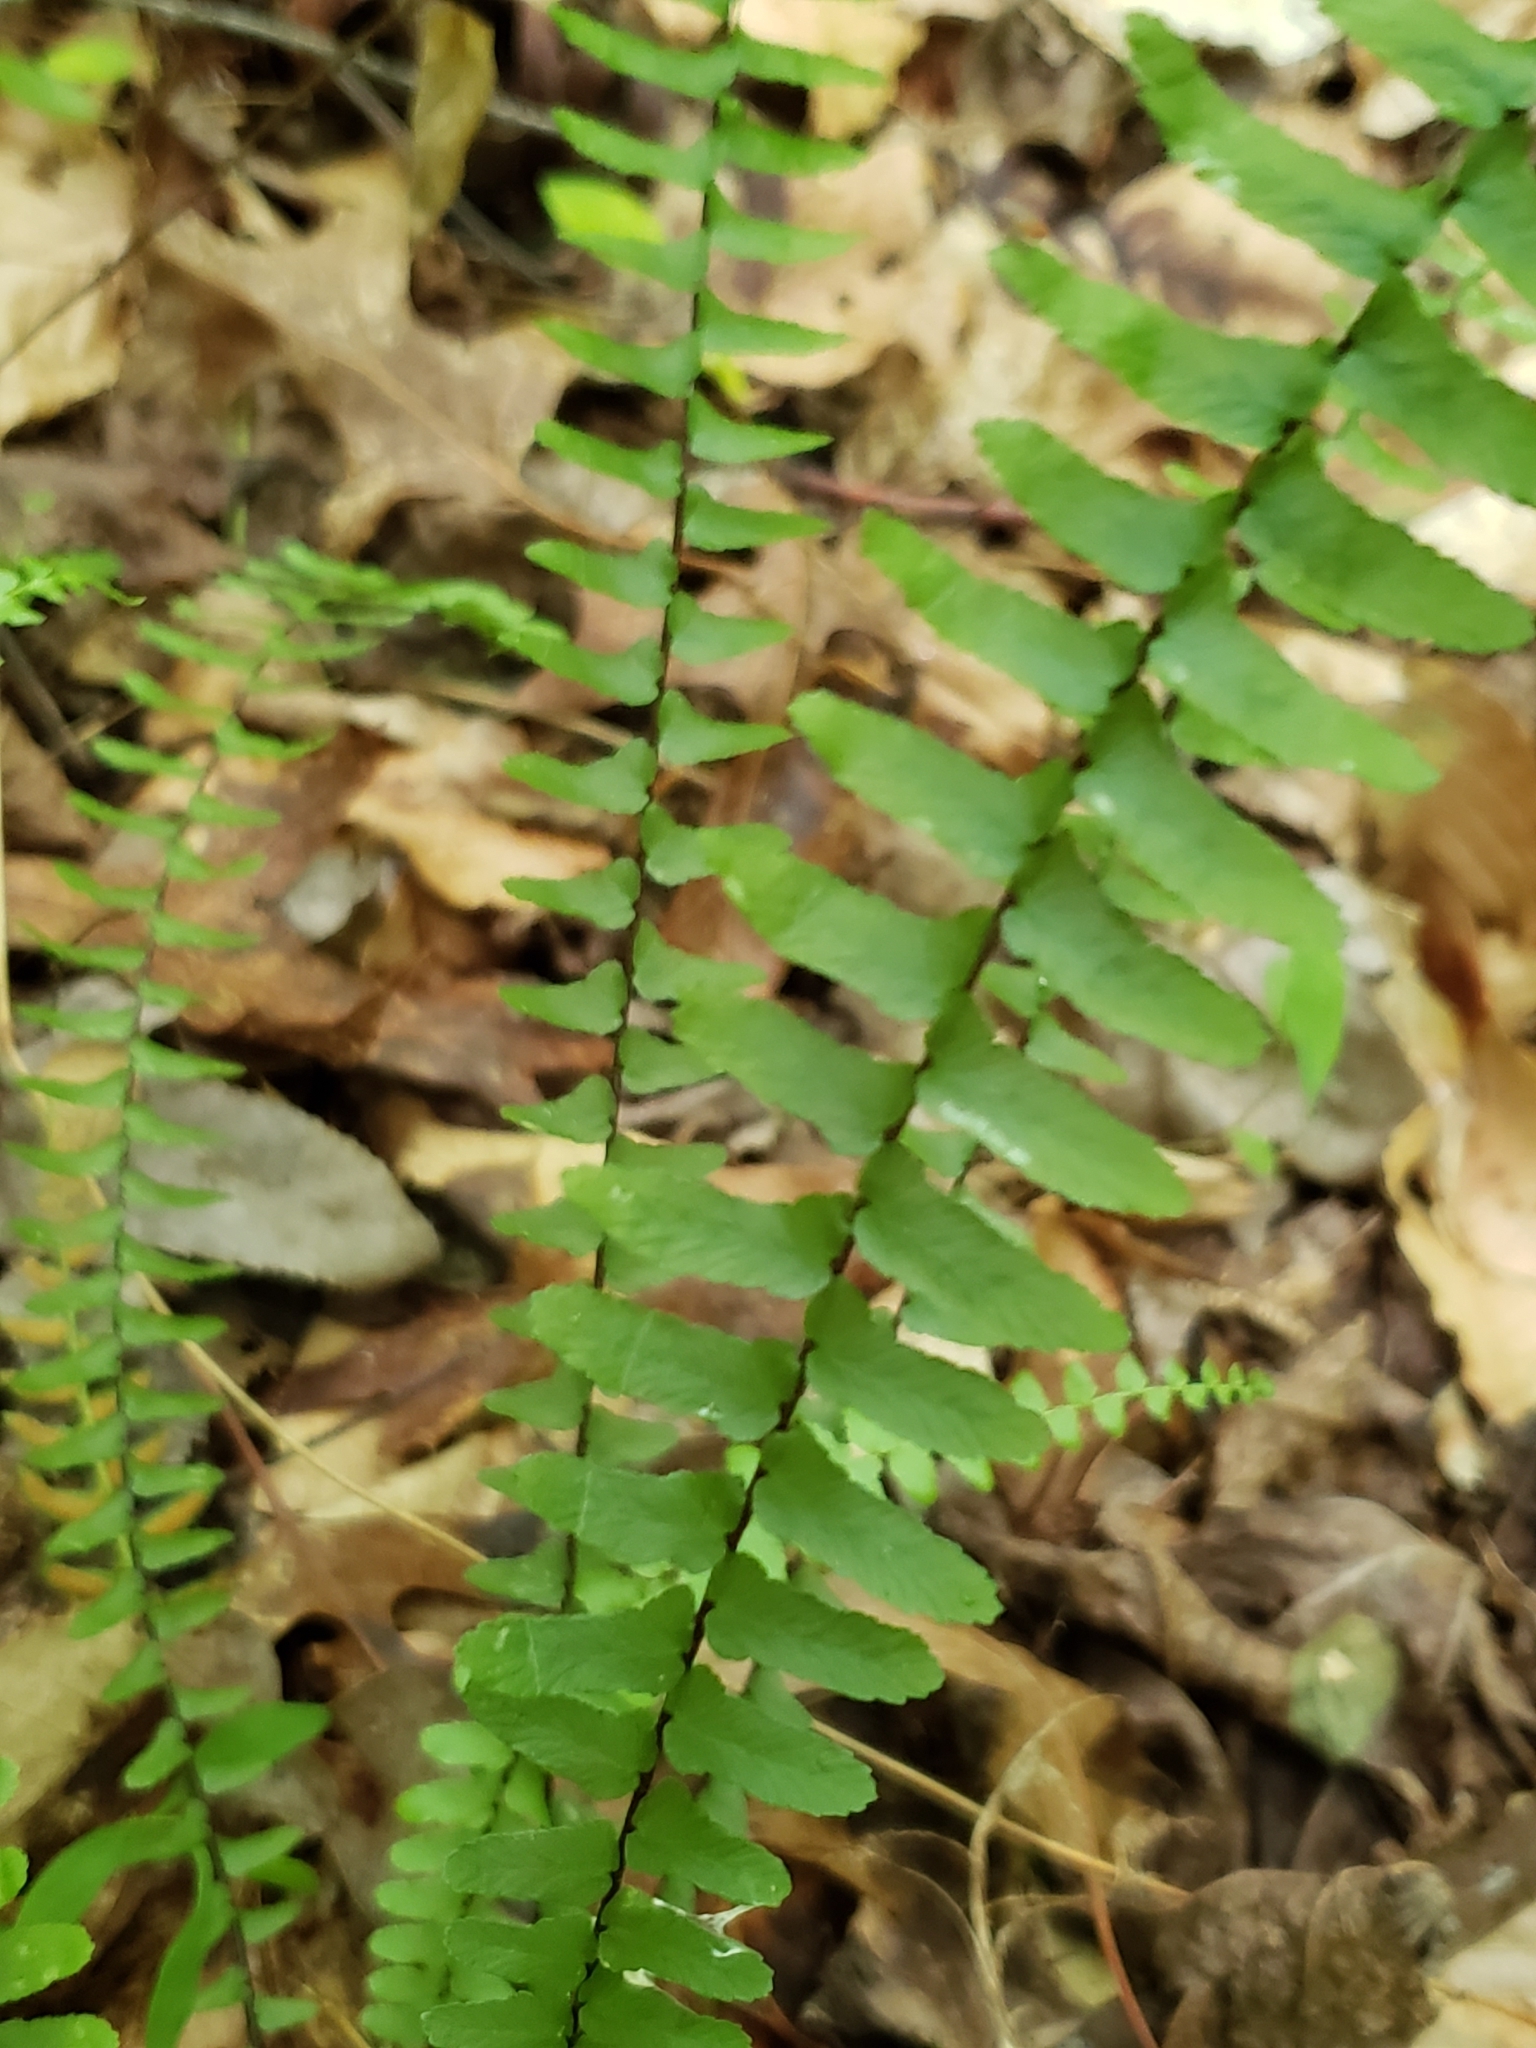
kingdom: Plantae
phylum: Tracheophyta
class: Polypodiopsida
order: Polypodiales
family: Aspleniaceae
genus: Asplenium
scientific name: Asplenium platyneuron
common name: Ebony spleenwort
